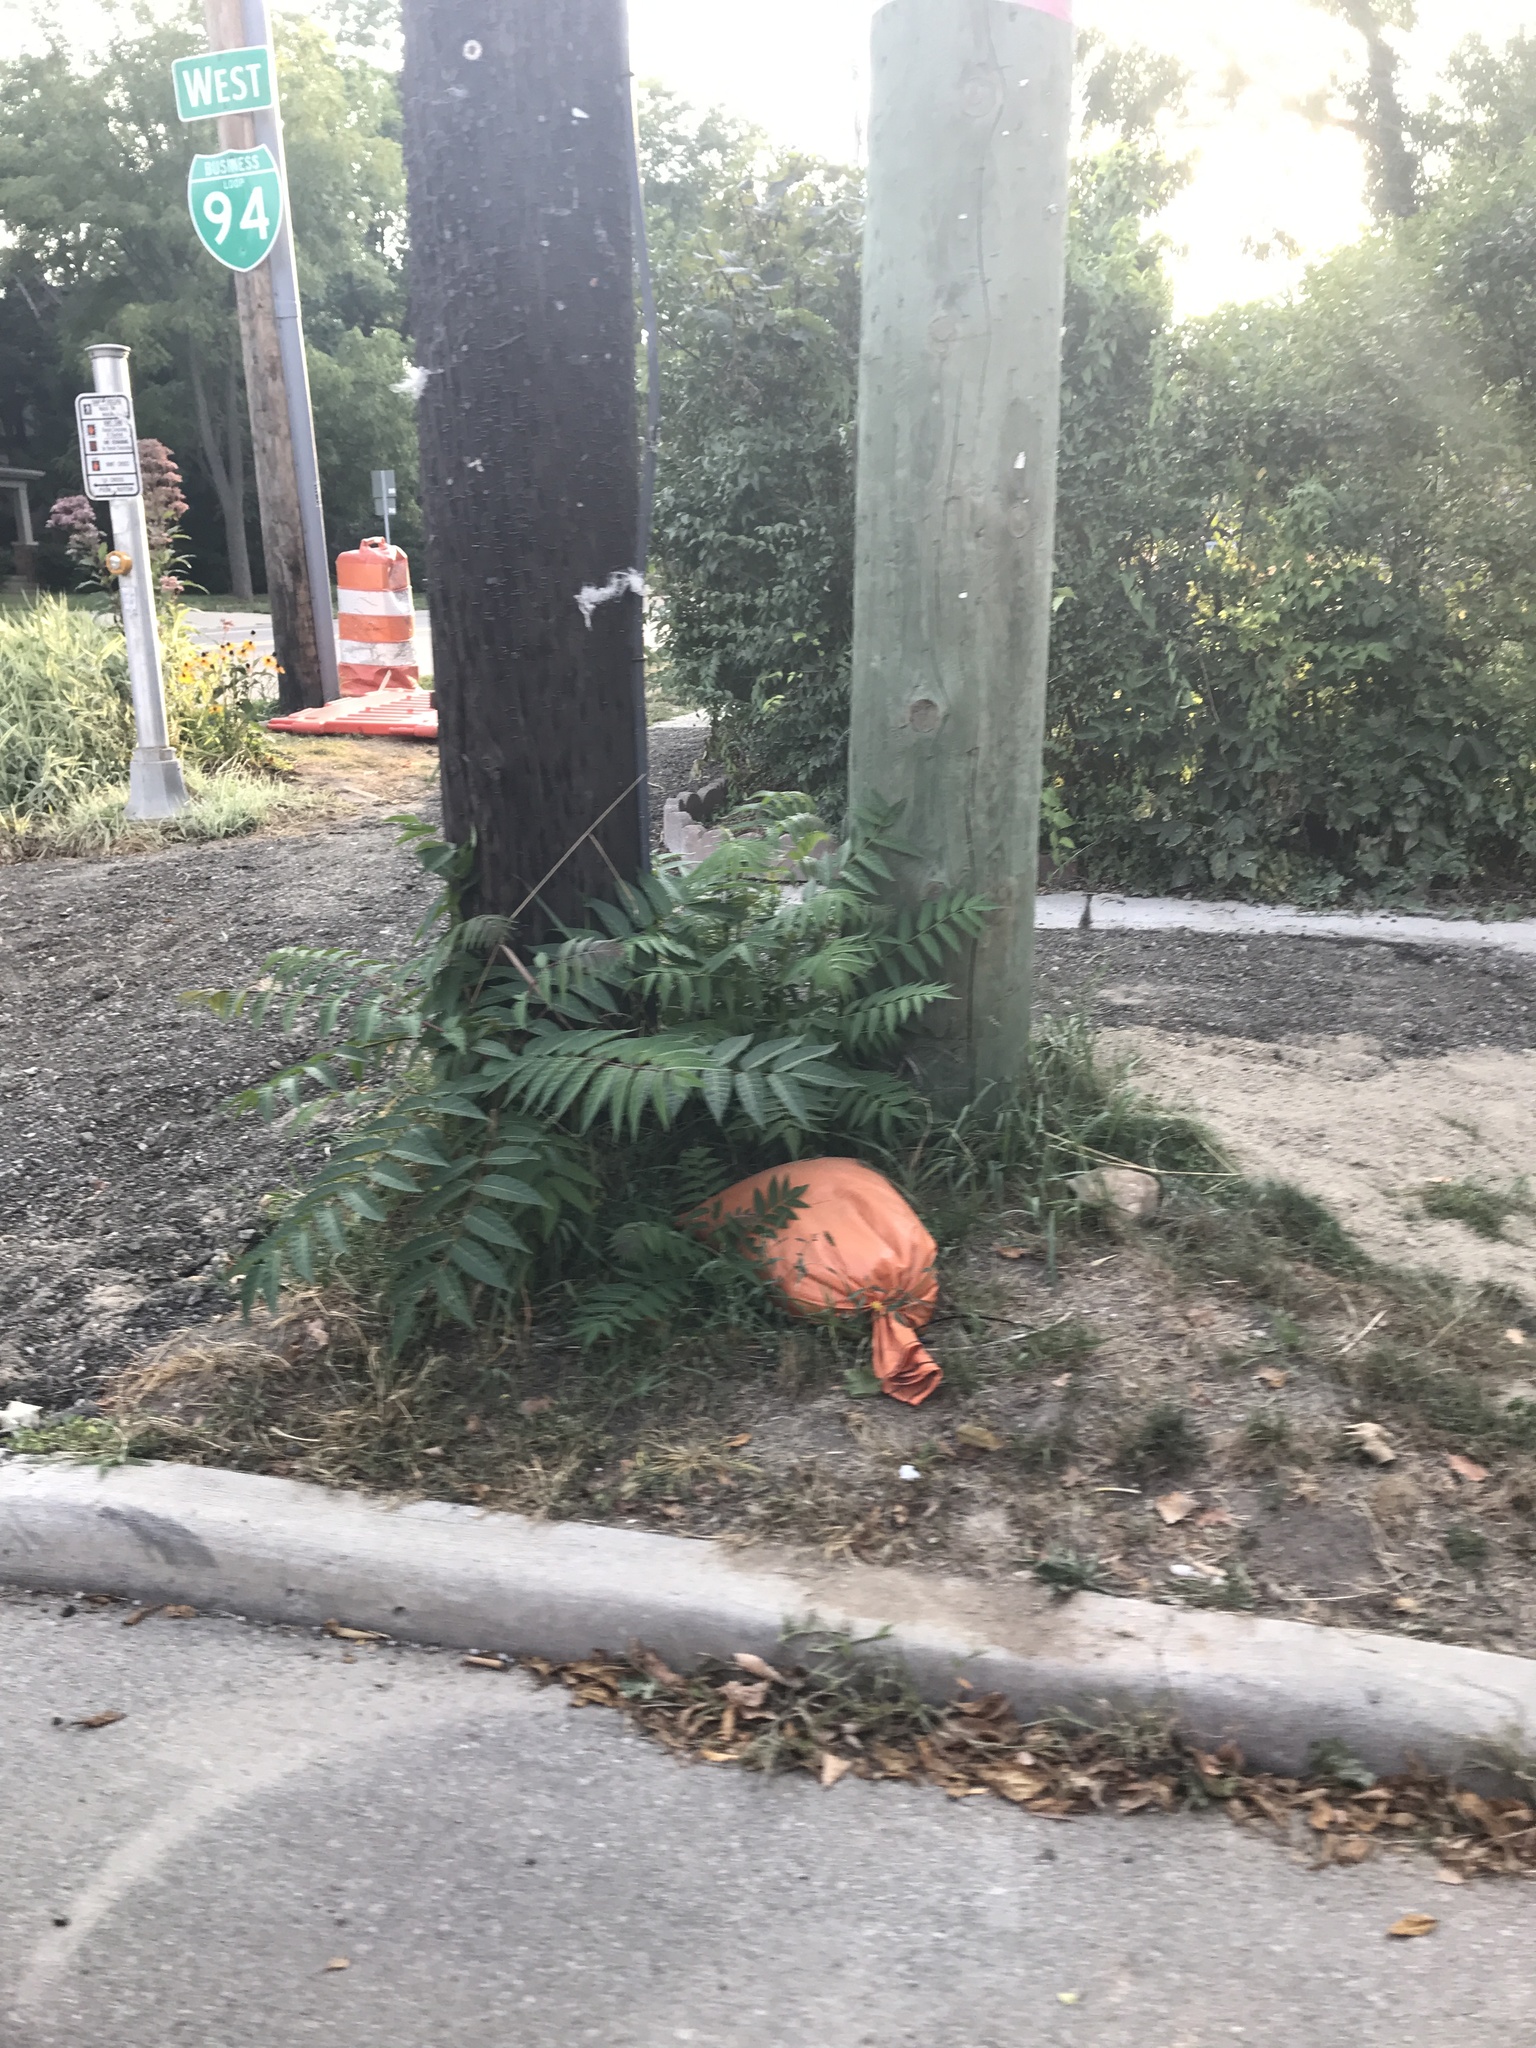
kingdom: Plantae
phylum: Tracheophyta
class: Magnoliopsida
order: Sapindales
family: Simaroubaceae
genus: Ailanthus
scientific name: Ailanthus altissima
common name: Tree-of-heaven
